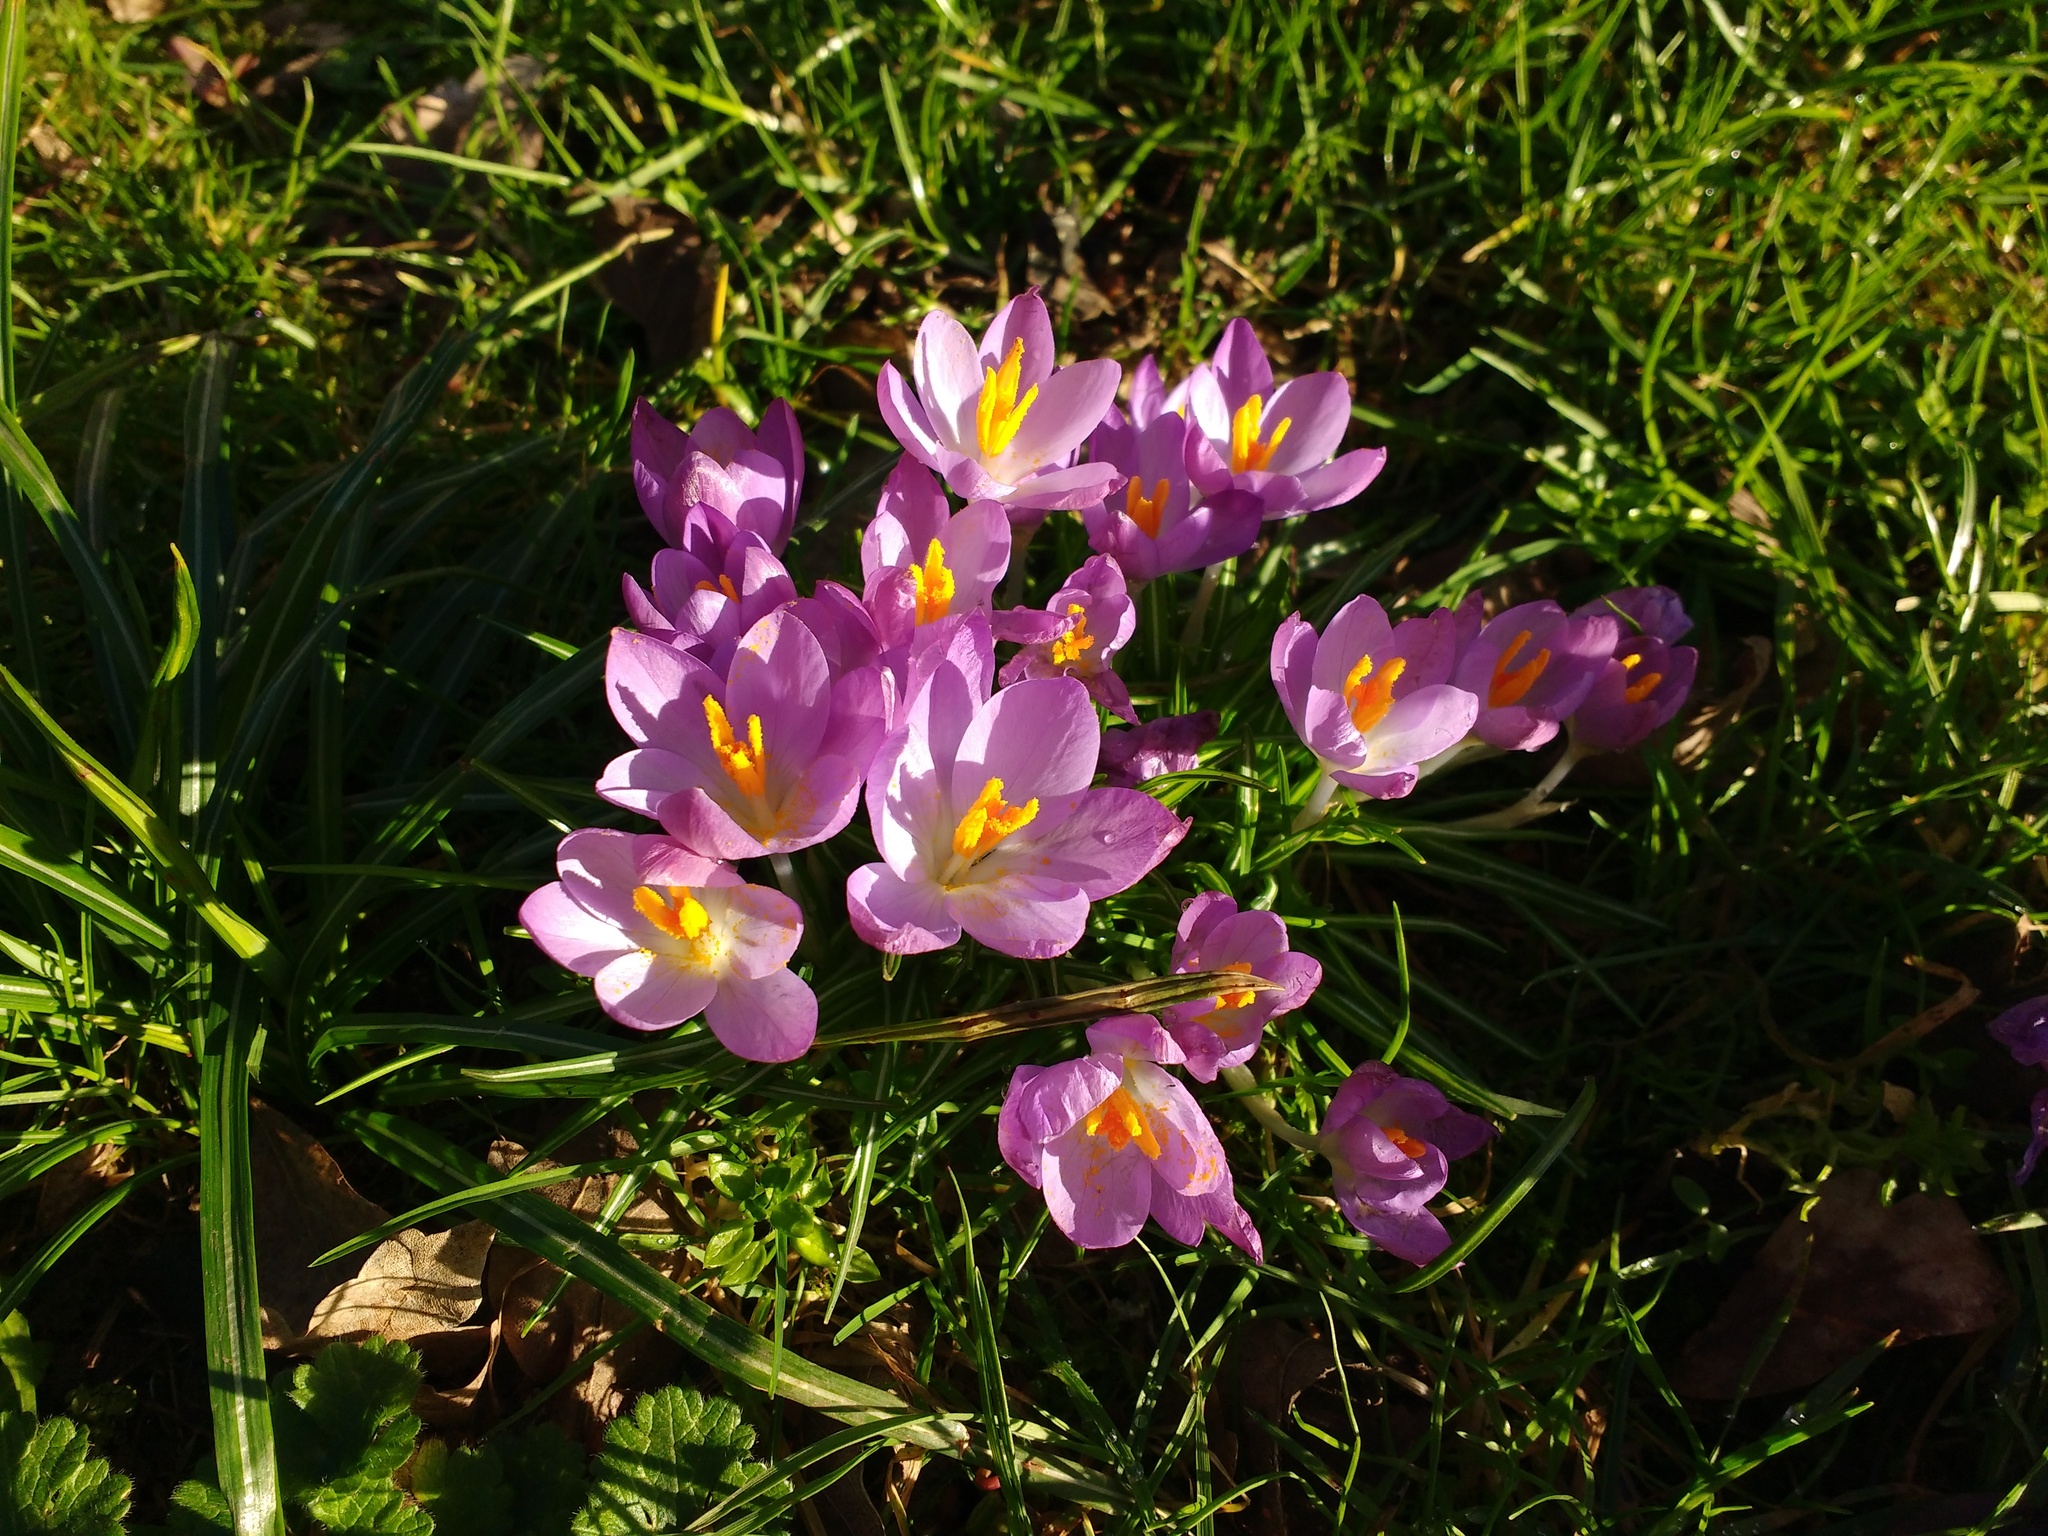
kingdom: Plantae
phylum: Tracheophyta
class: Liliopsida
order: Asparagales
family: Iridaceae
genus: Crocus
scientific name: Crocus tommasinianus
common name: Early crocus
